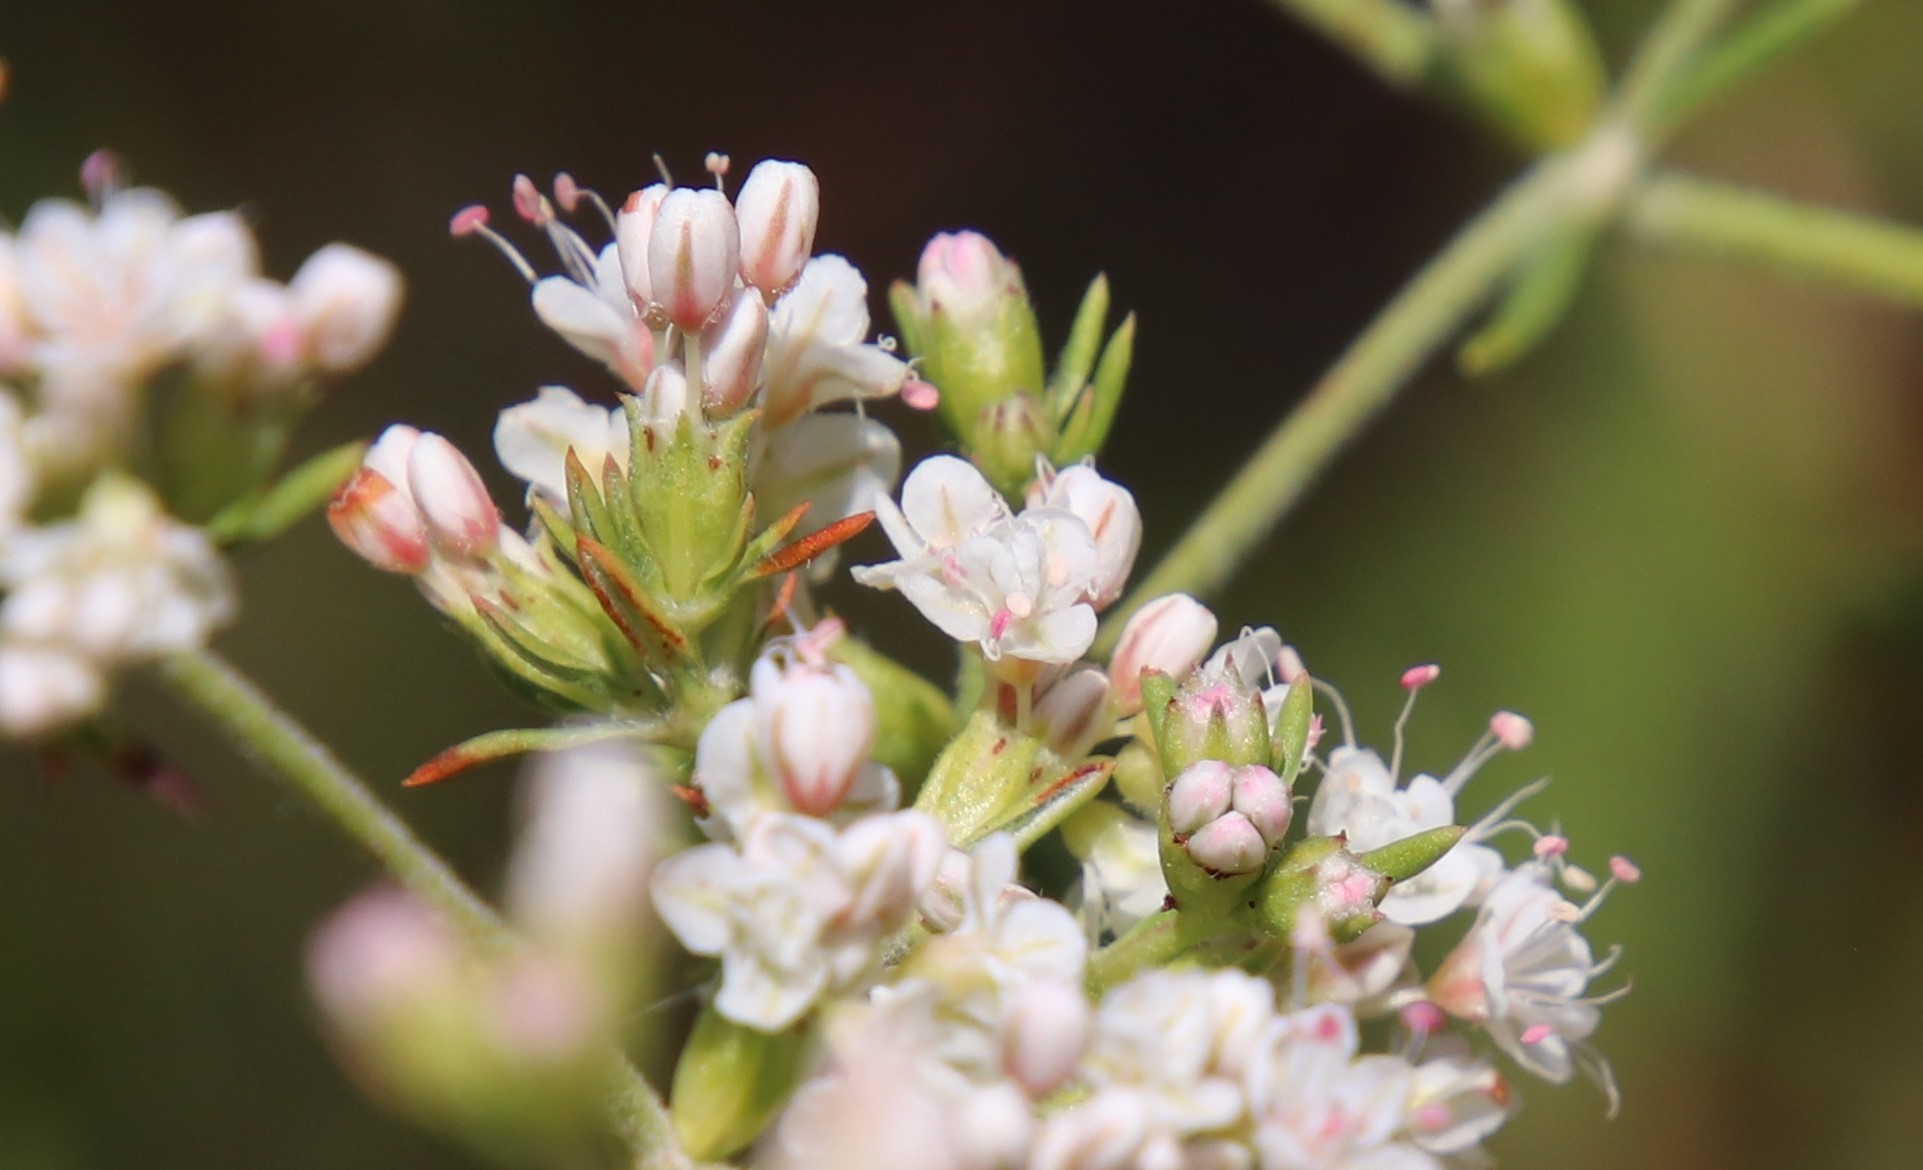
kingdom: Plantae
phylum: Tracheophyta
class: Magnoliopsida
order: Caryophyllales
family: Polygonaceae
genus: Eriogonum
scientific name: Eriogonum fasciculatum
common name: California wild buckwheat
